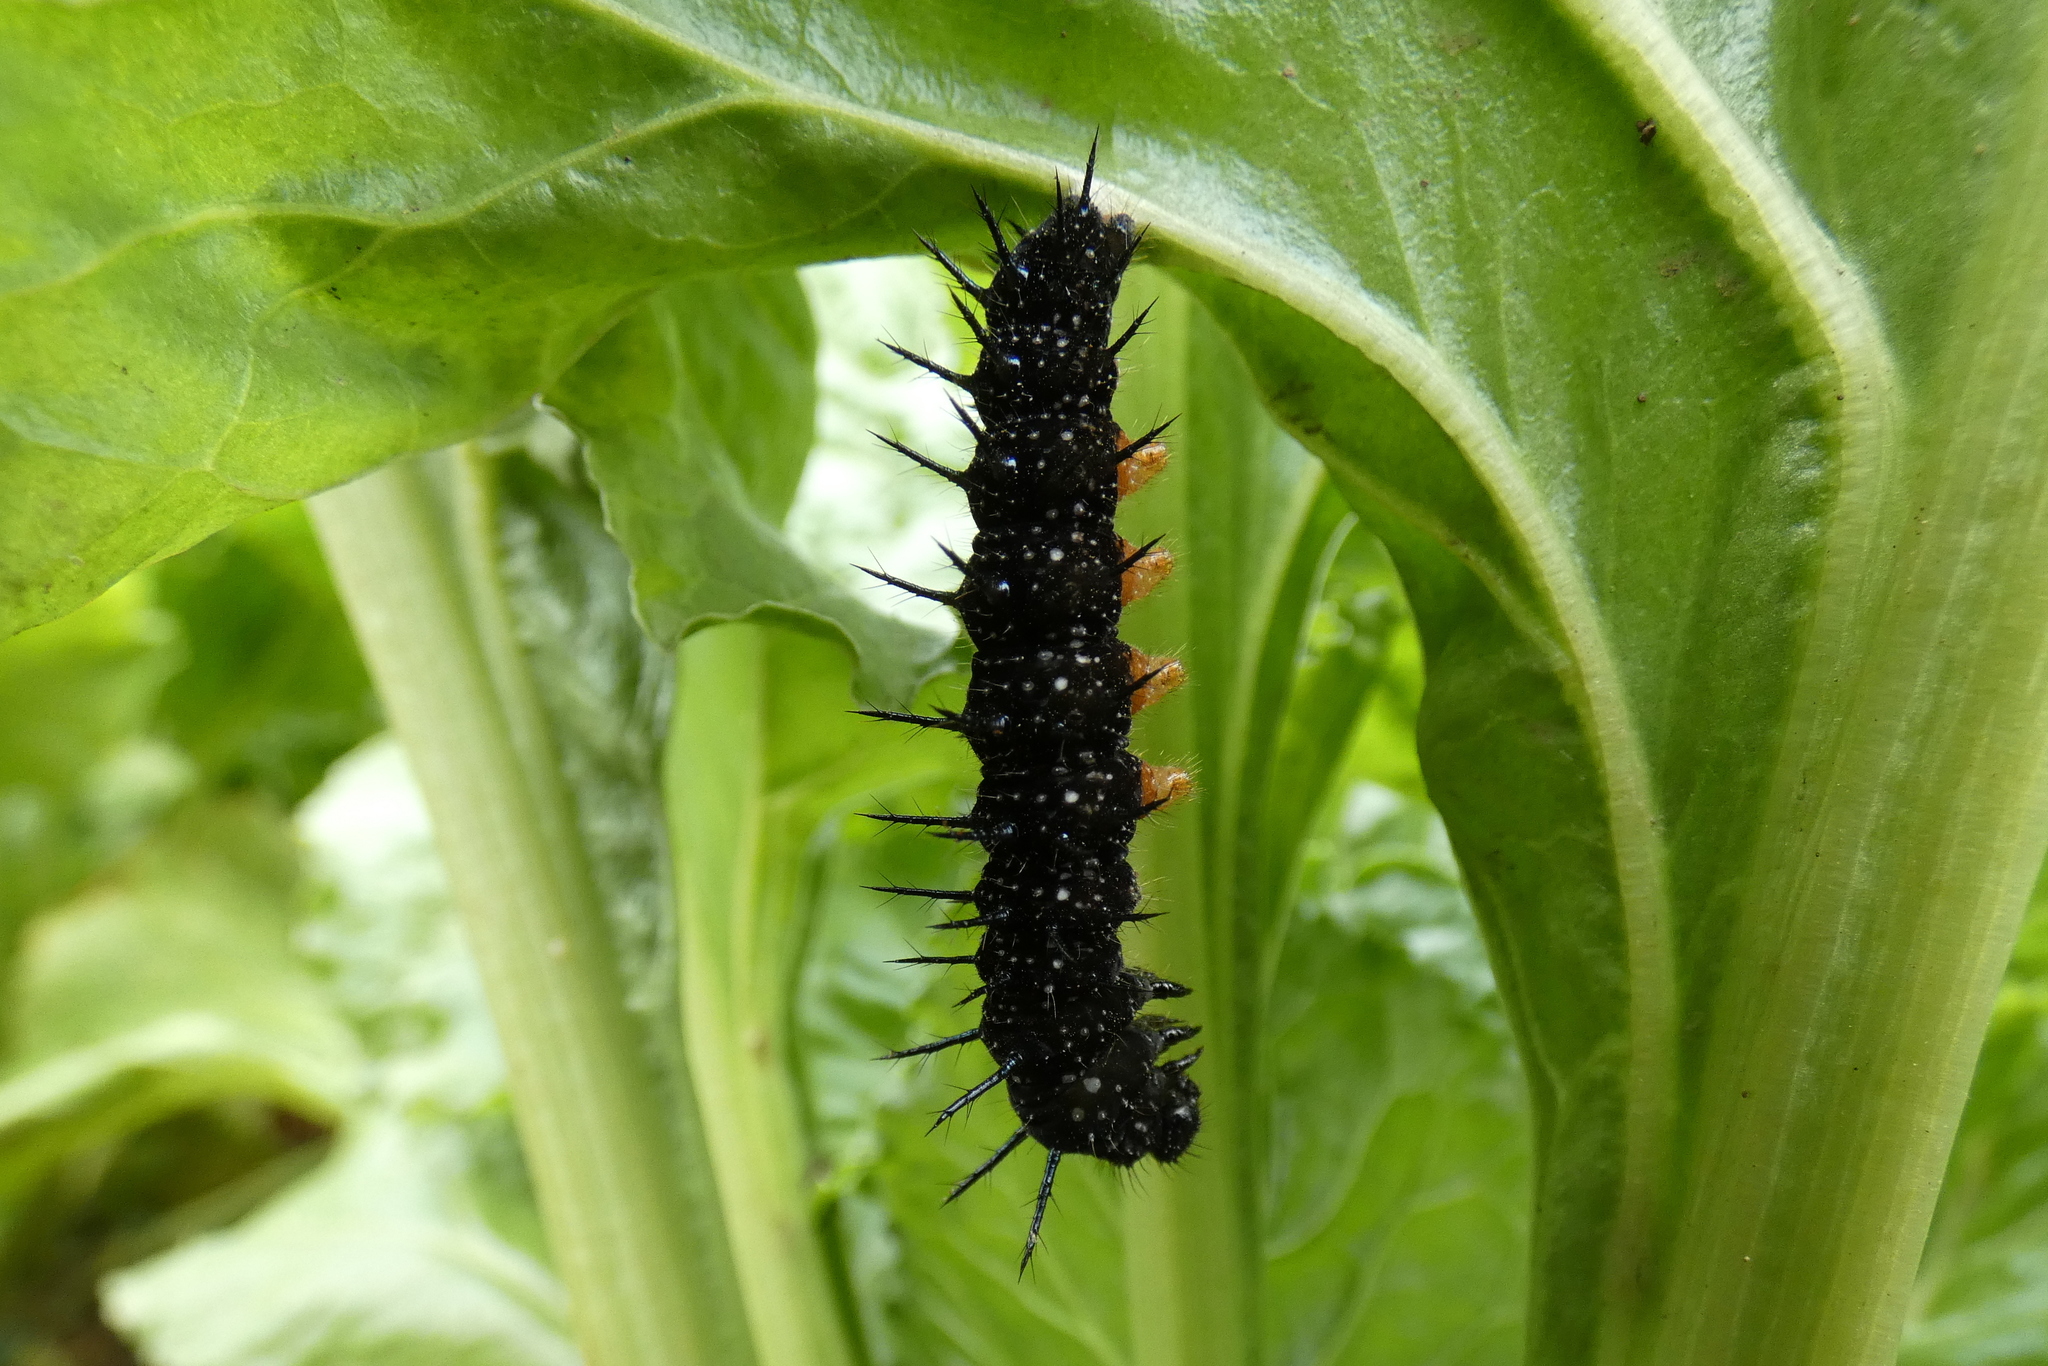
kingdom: Animalia
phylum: Arthropoda
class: Insecta
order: Lepidoptera
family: Nymphalidae
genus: Aglais
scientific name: Aglais io
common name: Peacock
